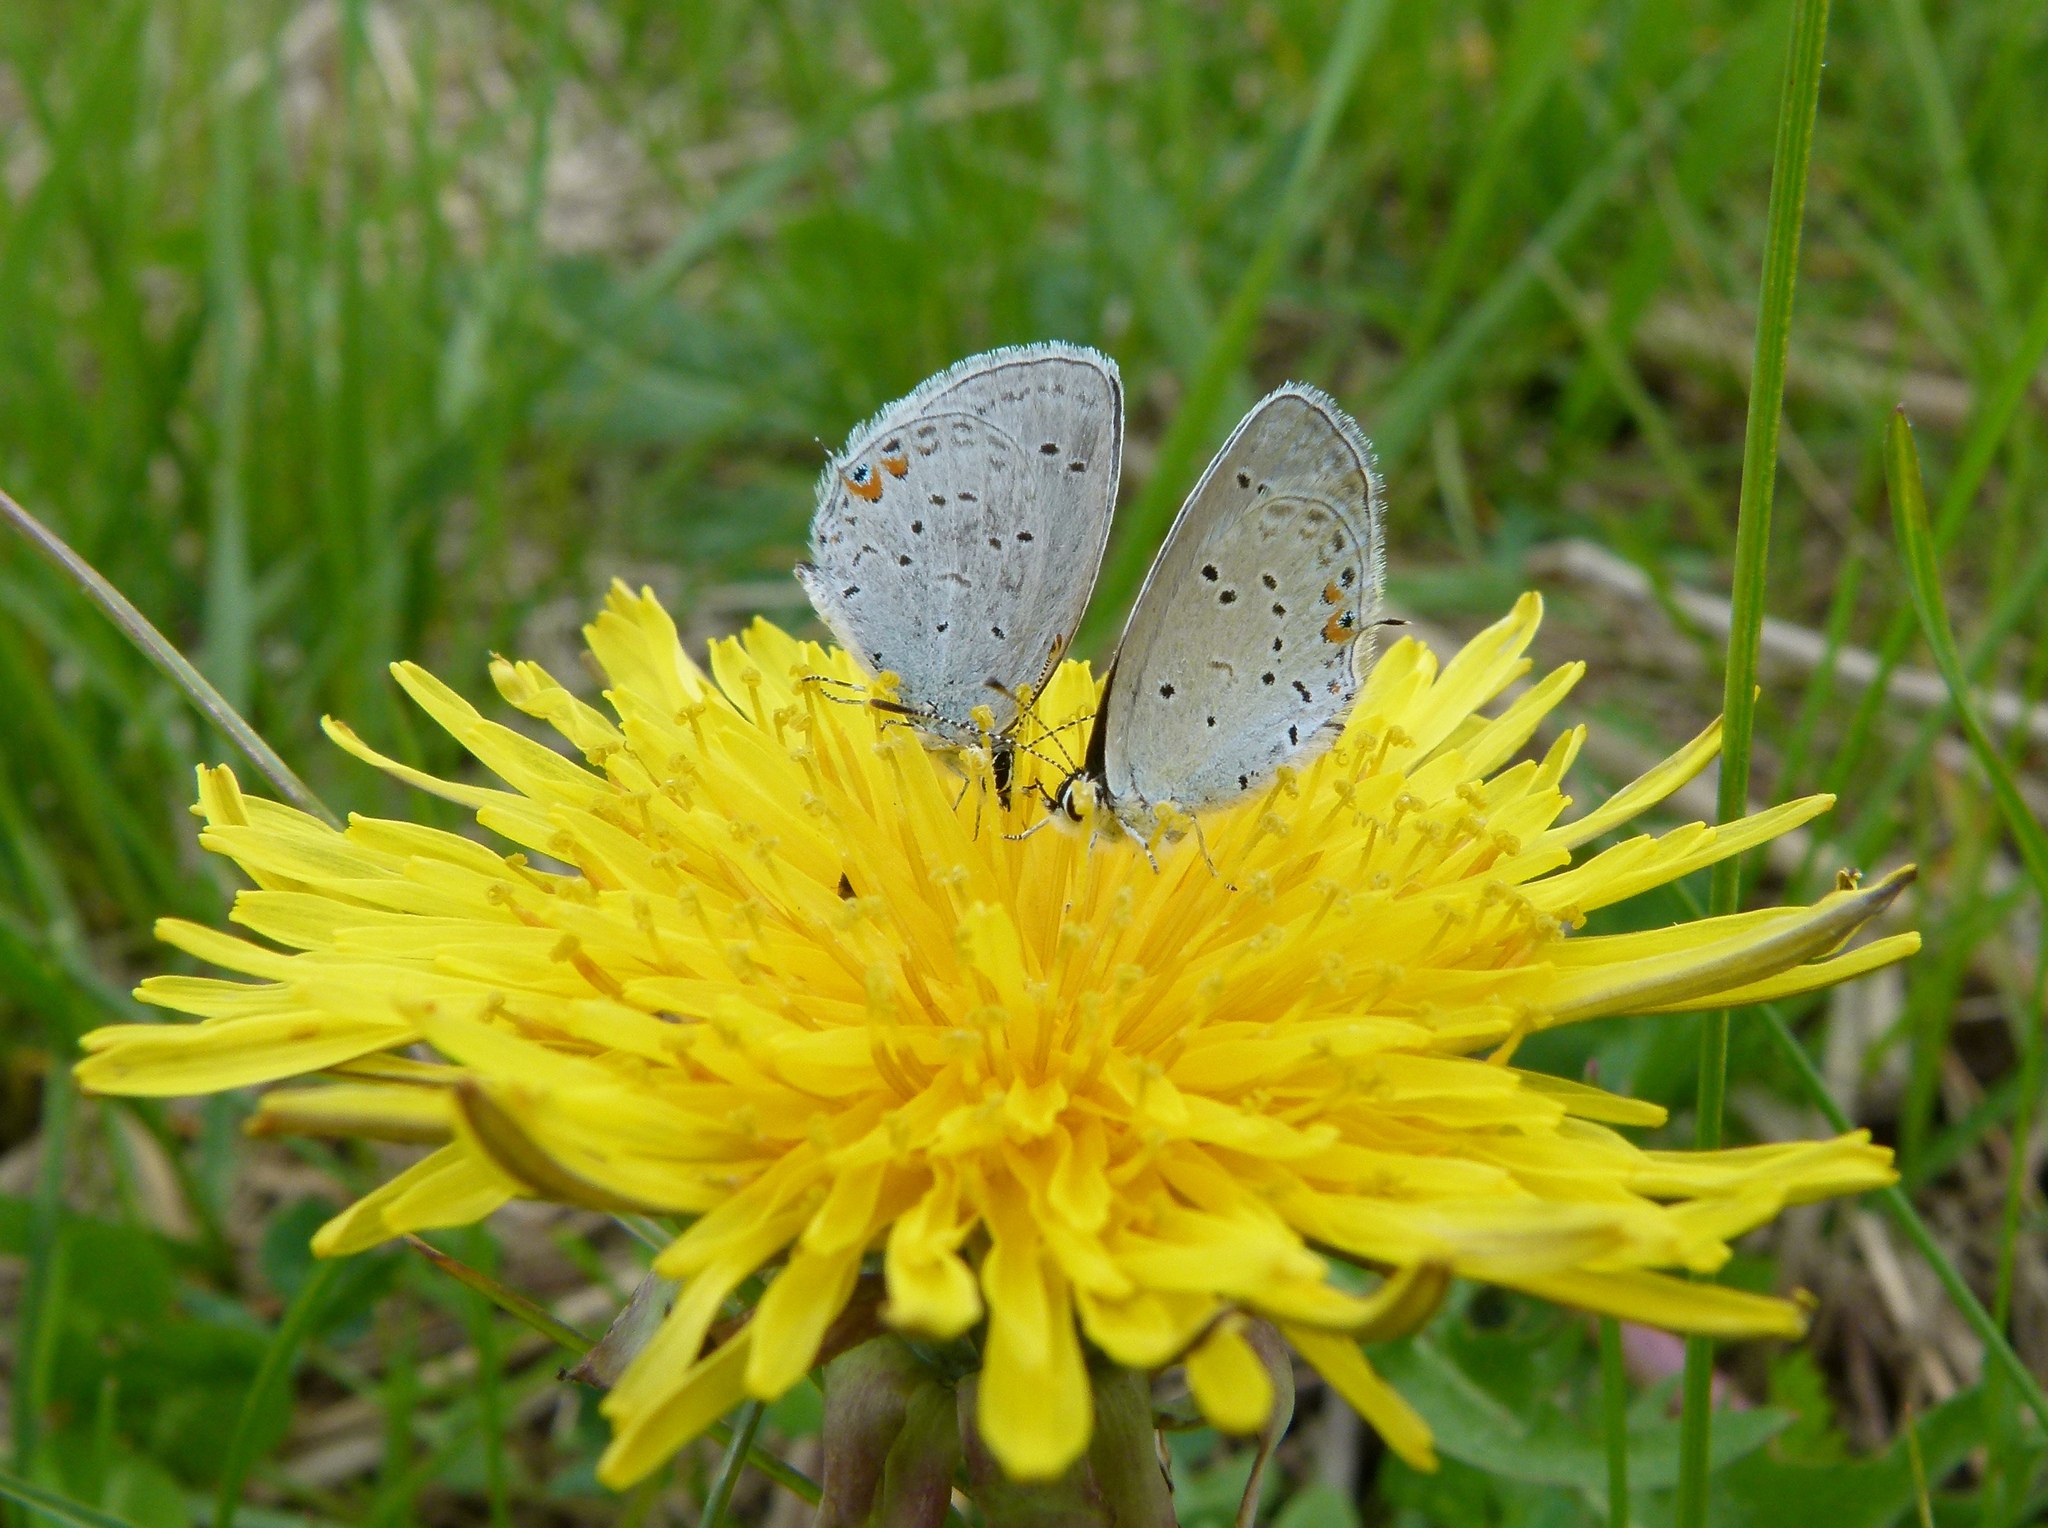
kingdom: Animalia
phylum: Arthropoda
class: Insecta
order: Lepidoptera
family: Lycaenidae
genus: Elkalyce
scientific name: Elkalyce comyntas
